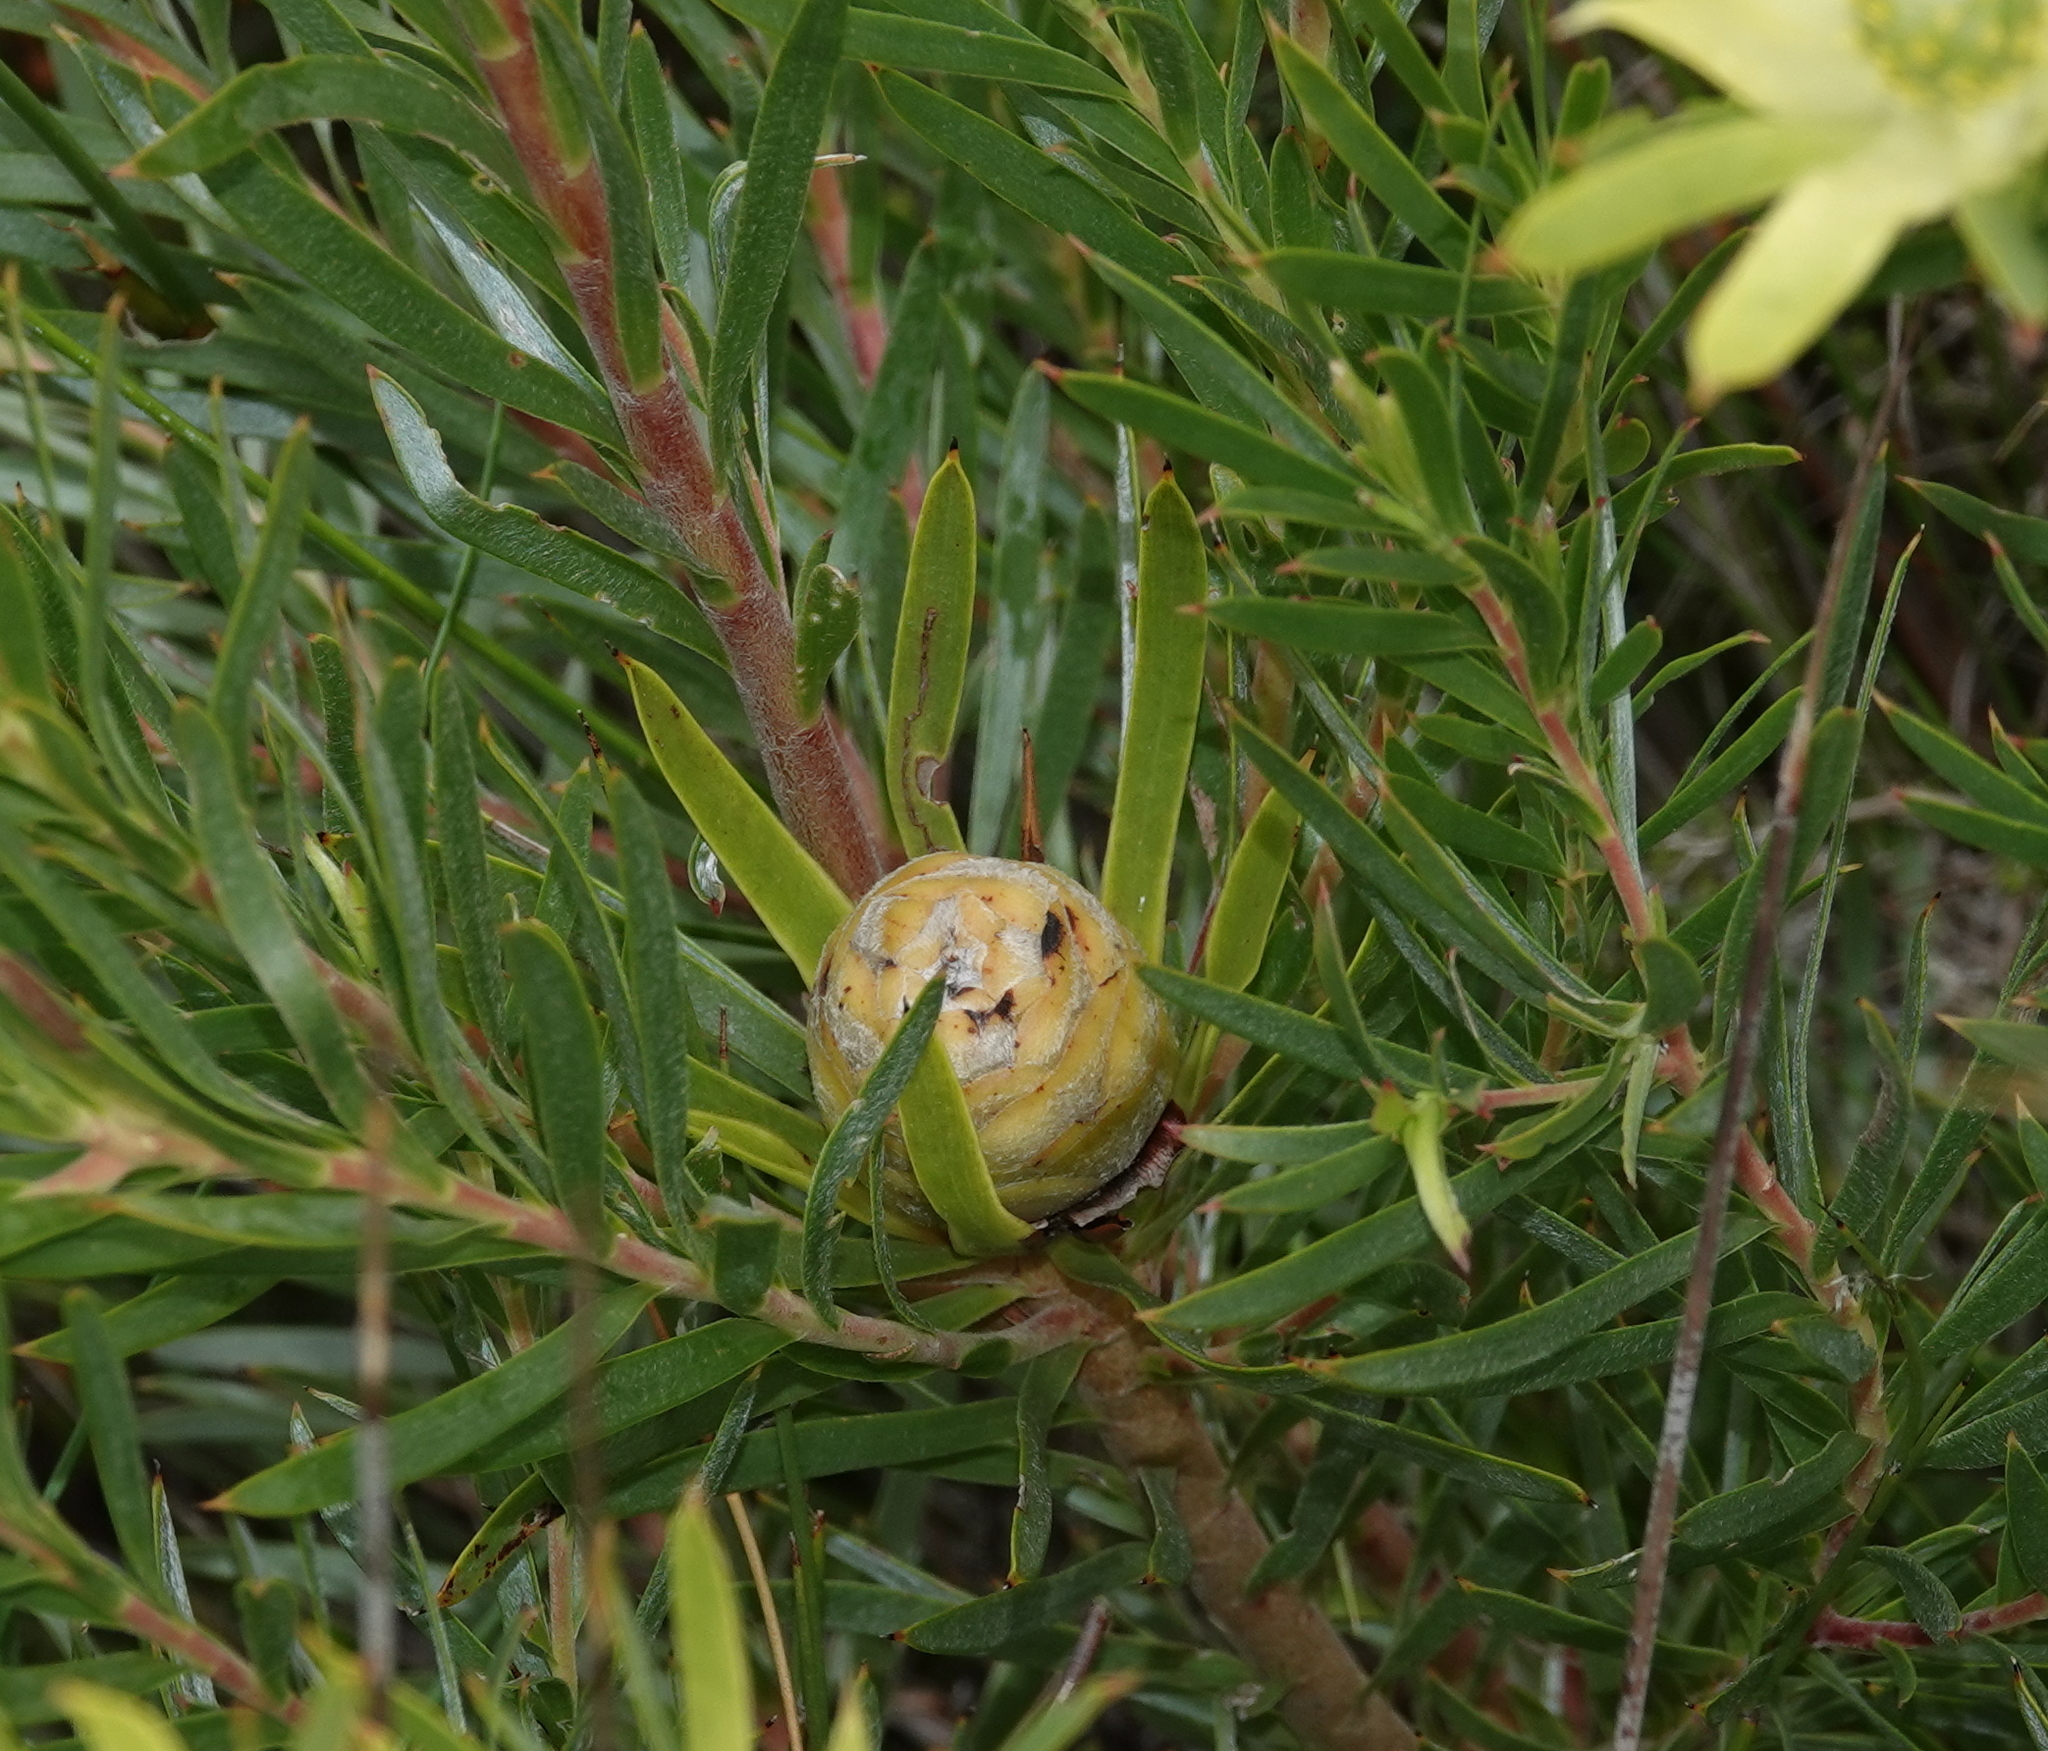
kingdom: Plantae
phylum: Tracheophyta
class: Magnoliopsida
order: Proteales
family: Proteaceae
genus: Leucadendron
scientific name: Leucadendron xanthoconus
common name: Sickle-leaf conebush
